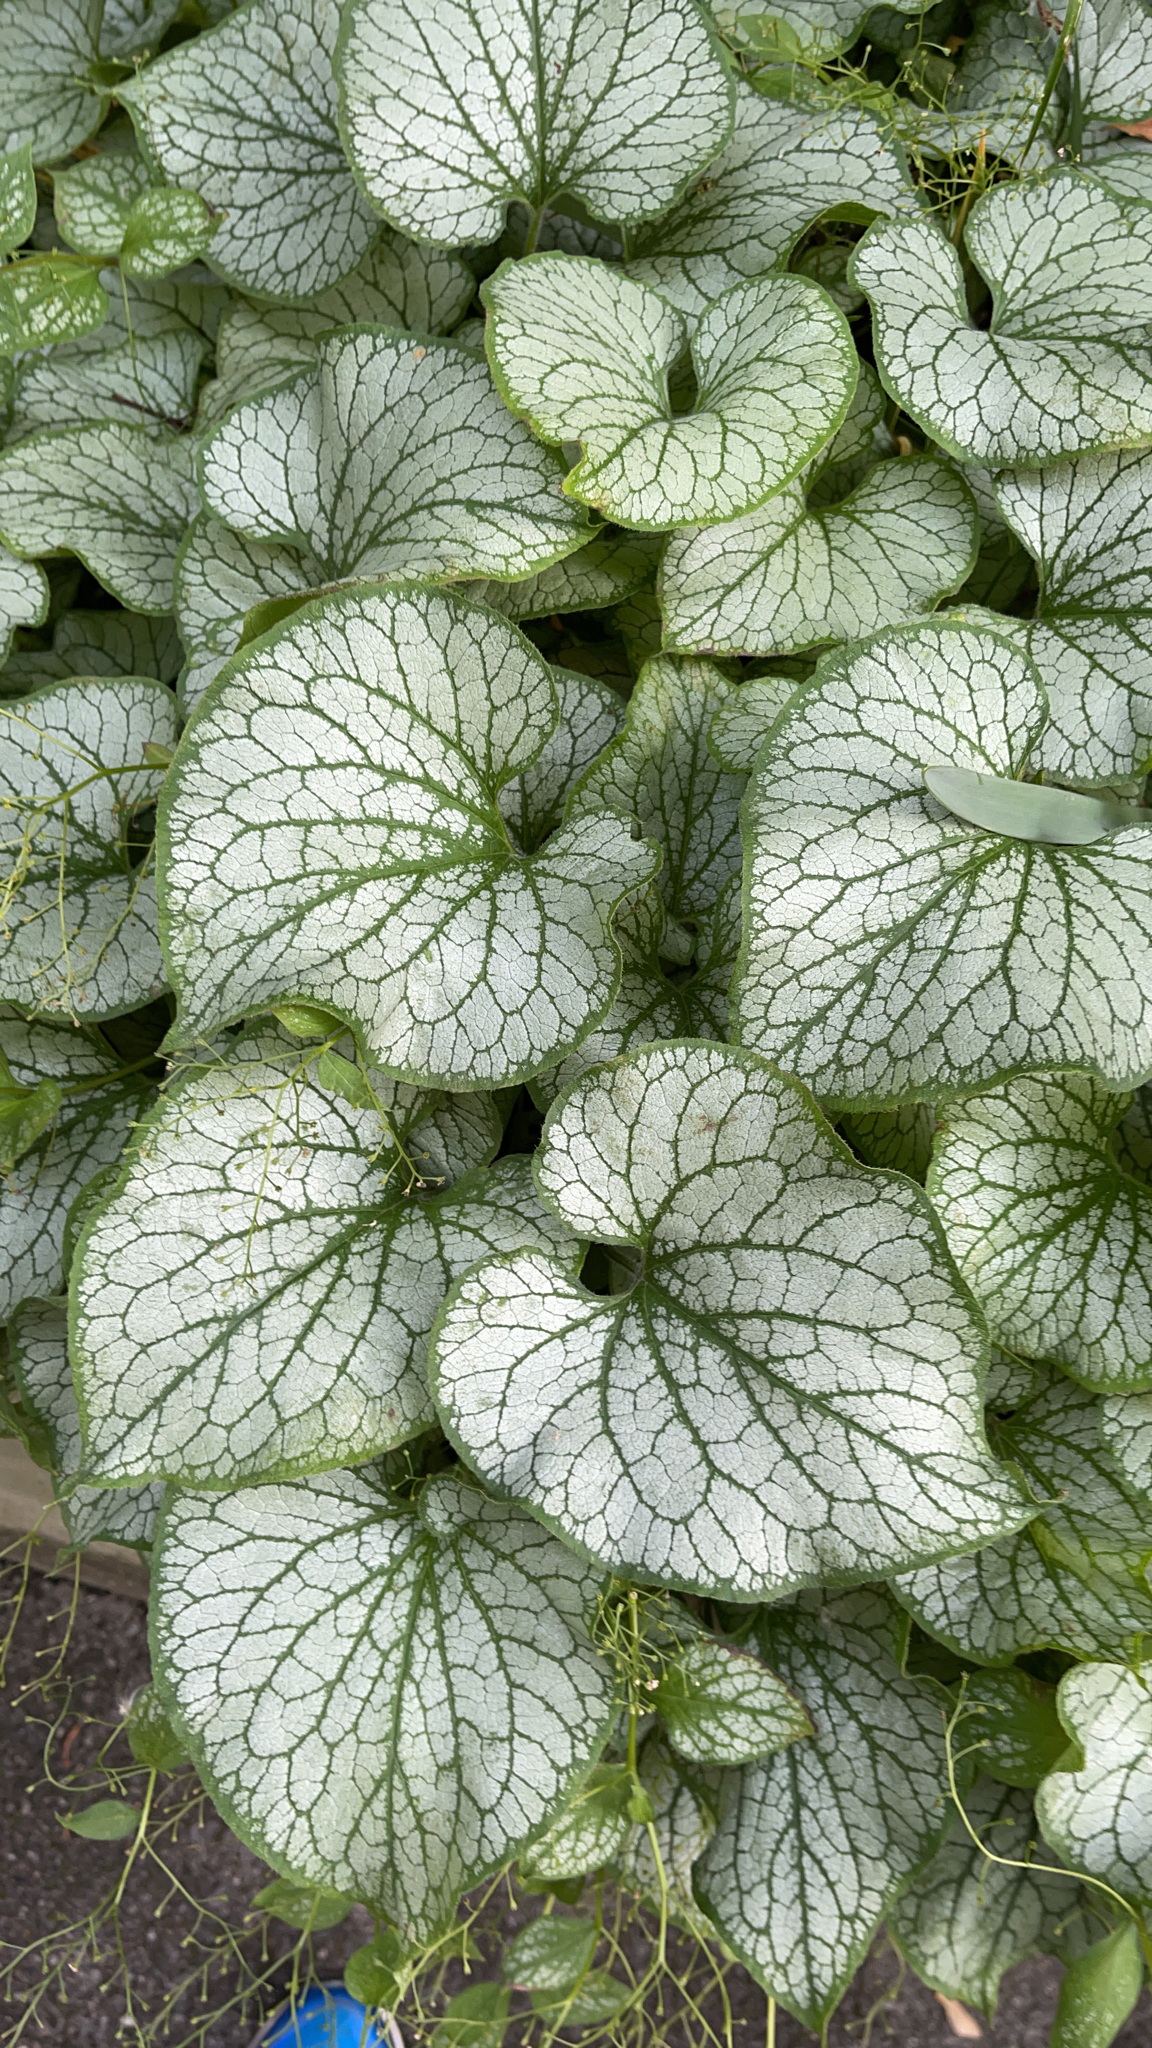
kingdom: Plantae
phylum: Tracheophyta
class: Magnoliopsida
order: Boraginales
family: Boraginaceae
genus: Brunnera
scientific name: Brunnera macrophylla
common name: Great forget-me-not
